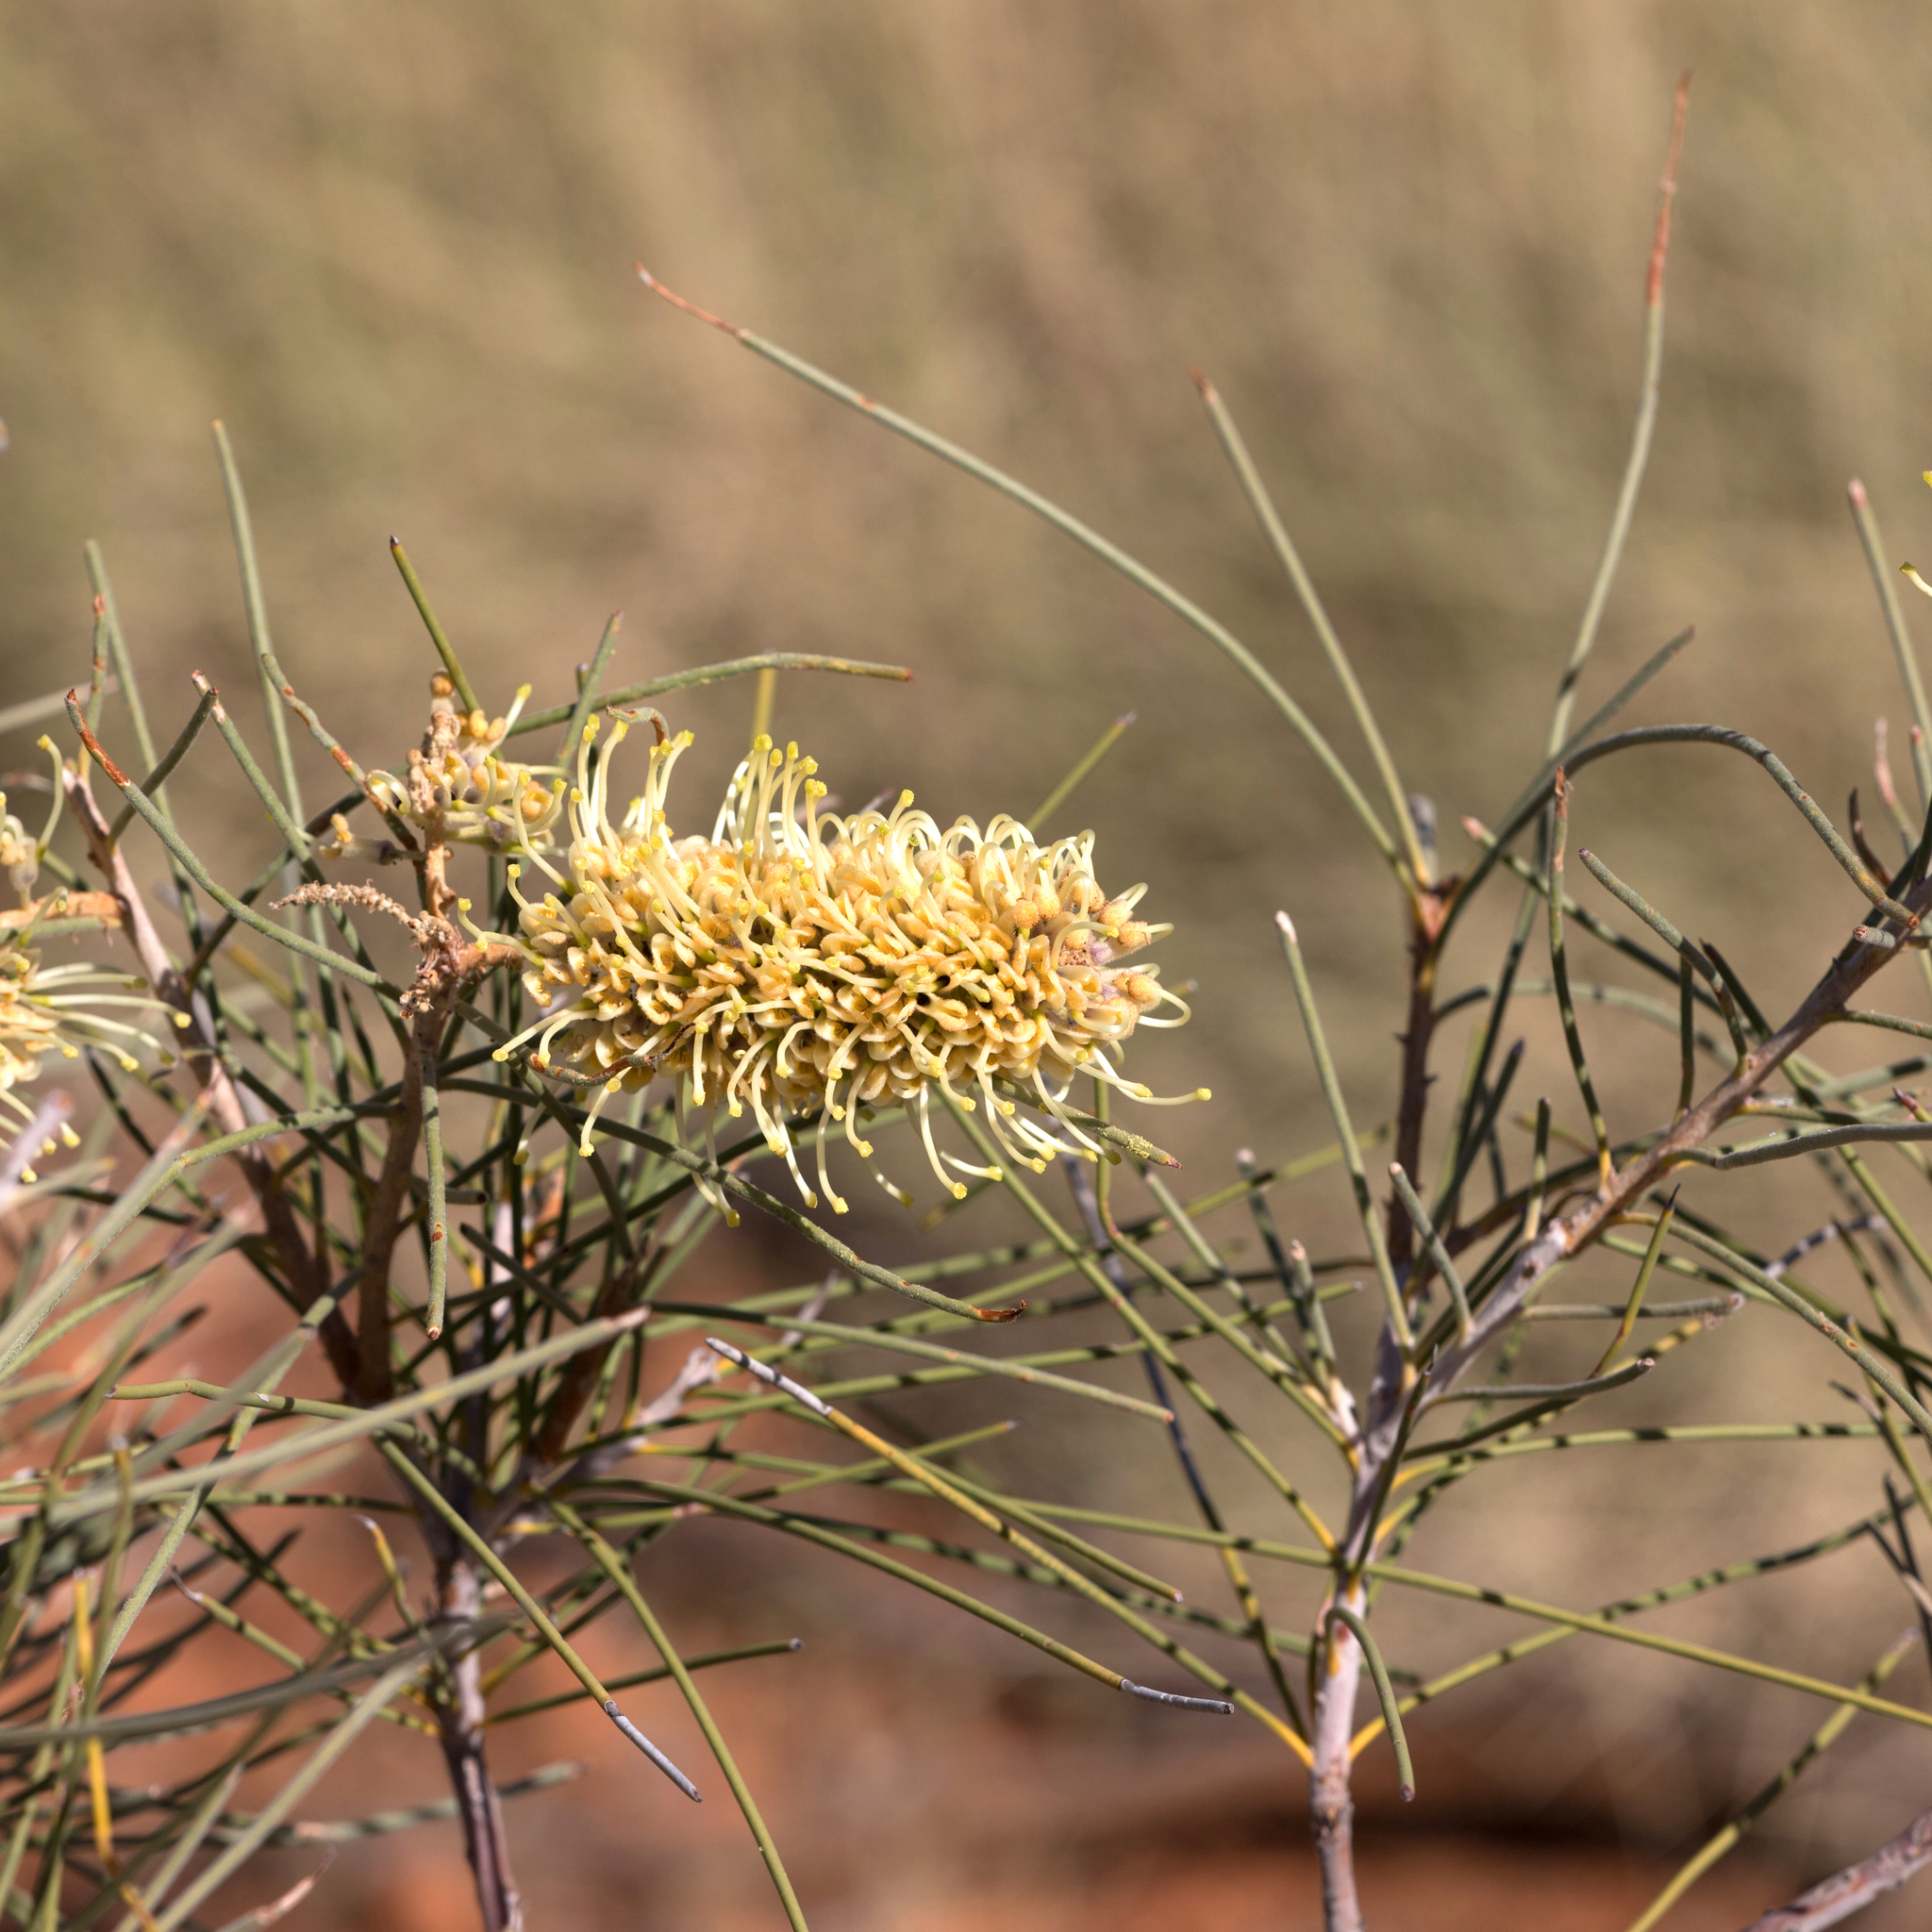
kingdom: Plantae
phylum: Tracheophyta
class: Magnoliopsida
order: Proteales
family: Proteaceae
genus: Hakea
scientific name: Hakea chordophylla
